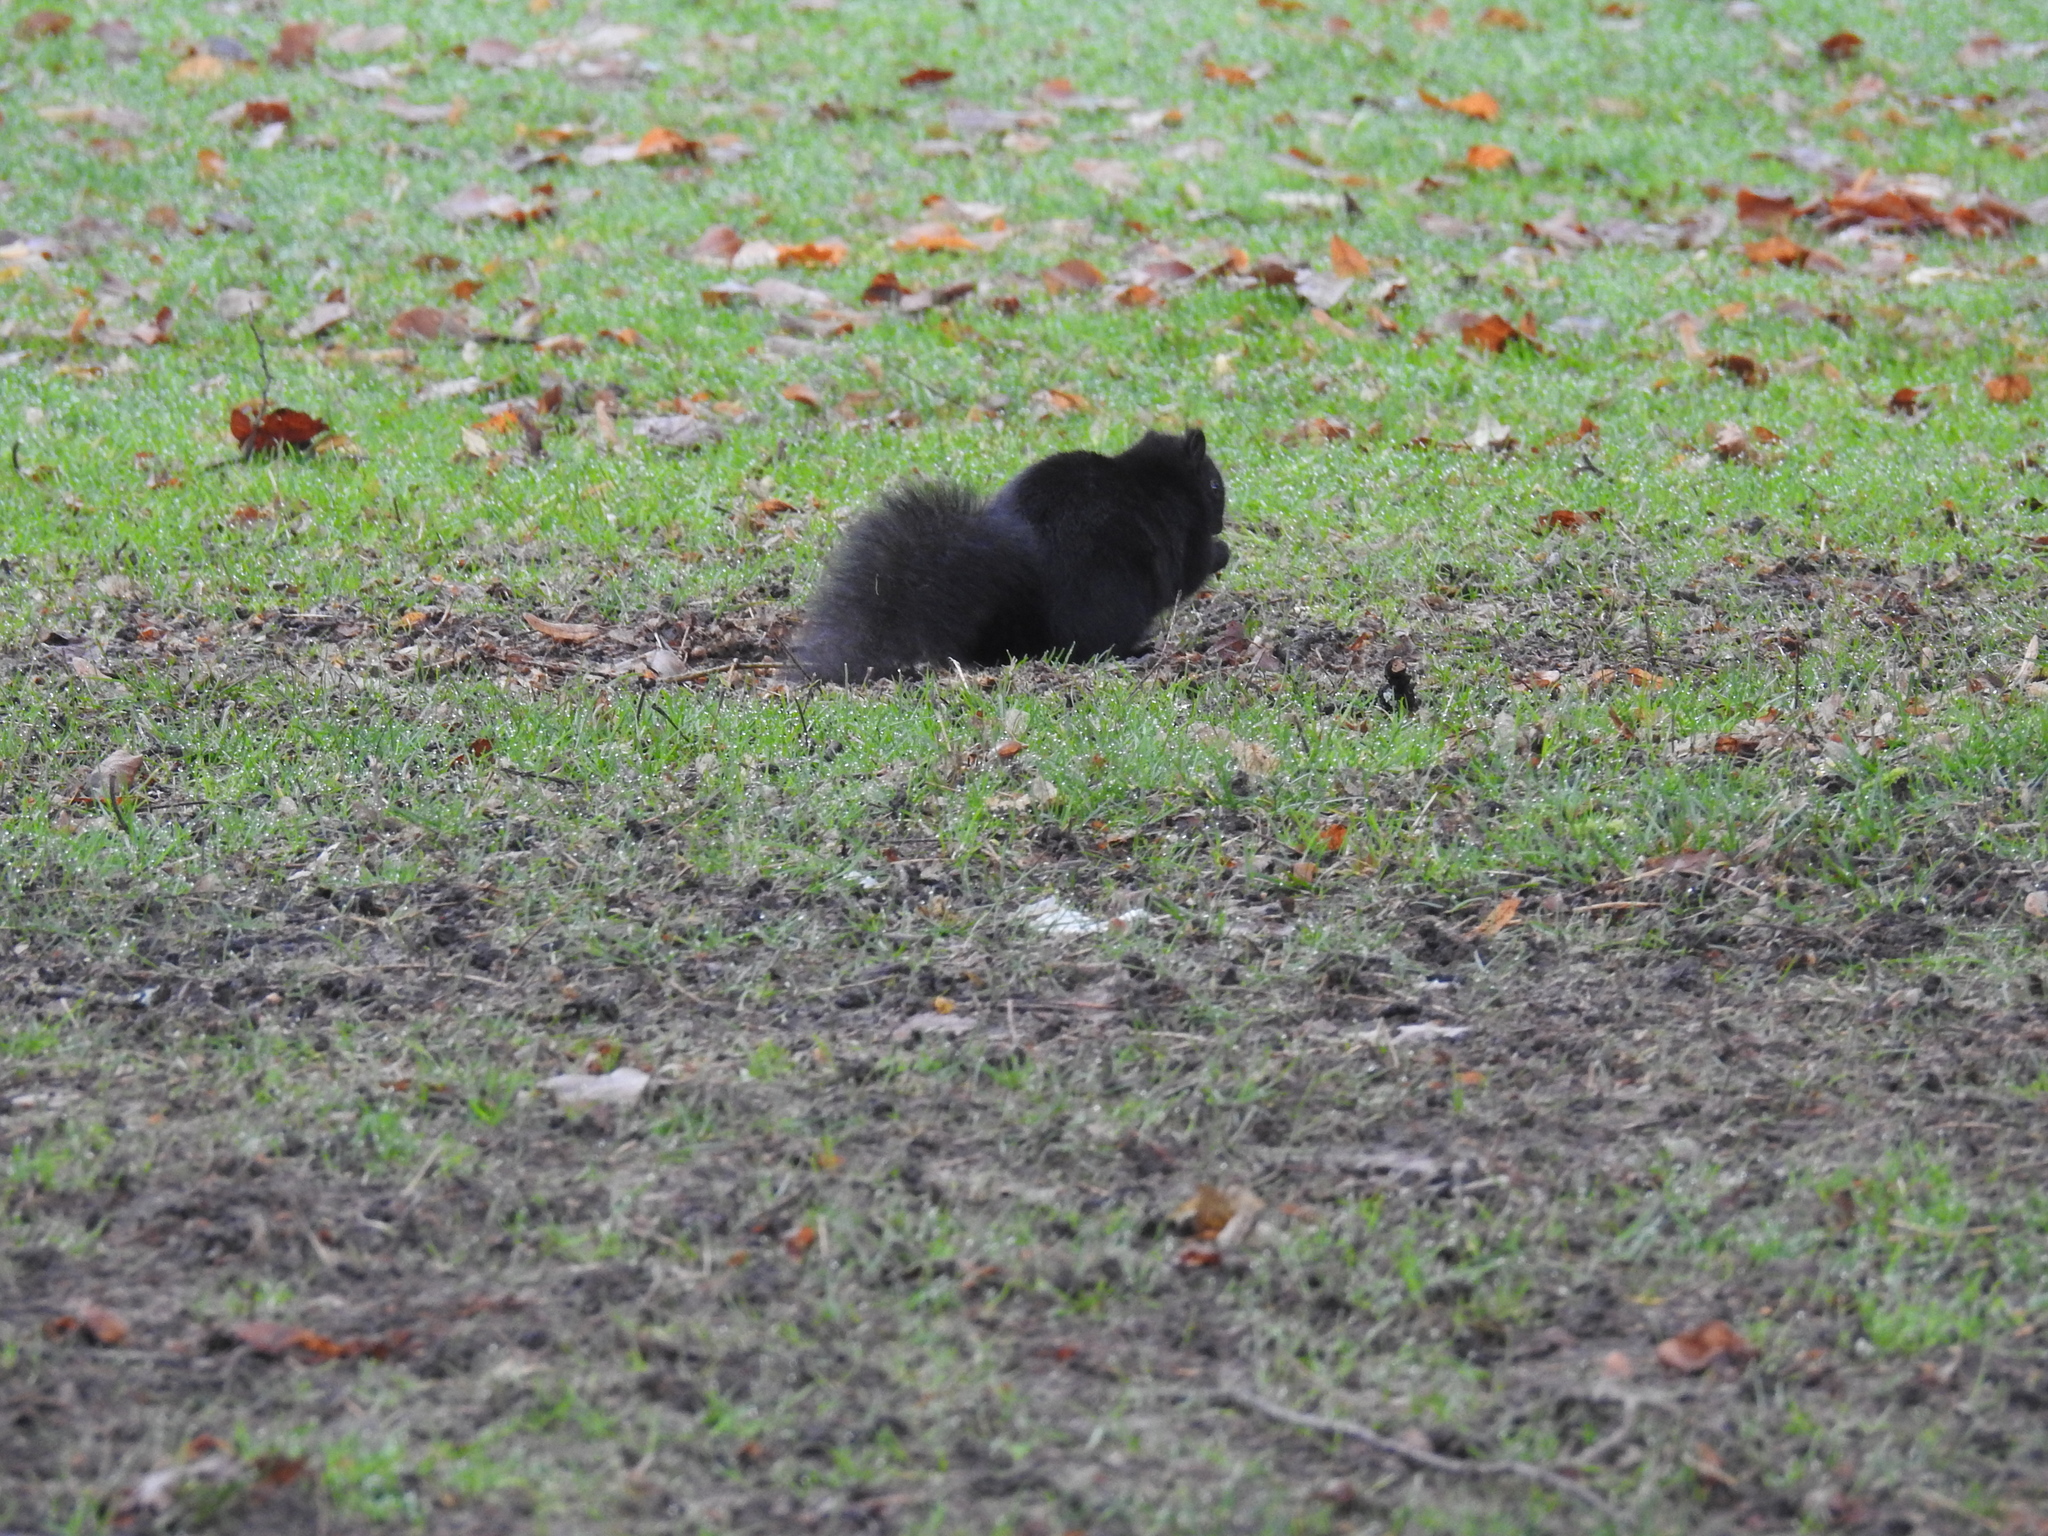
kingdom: Animalia
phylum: Chordata
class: Mammalia
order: Rodentia
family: Sciuridae
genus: Sciurus
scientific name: Sciurus carolinensis
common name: Eastern gray squirrel
